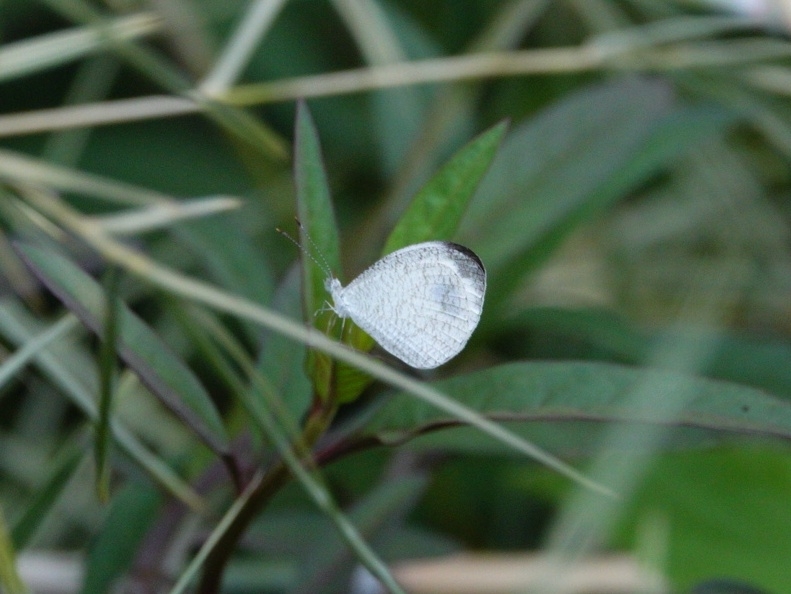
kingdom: Animalia
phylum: Arthropoda
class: Insecta
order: Lepidoptera
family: Pieridae
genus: Leptosia
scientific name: Leptosia nina
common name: Psyche
